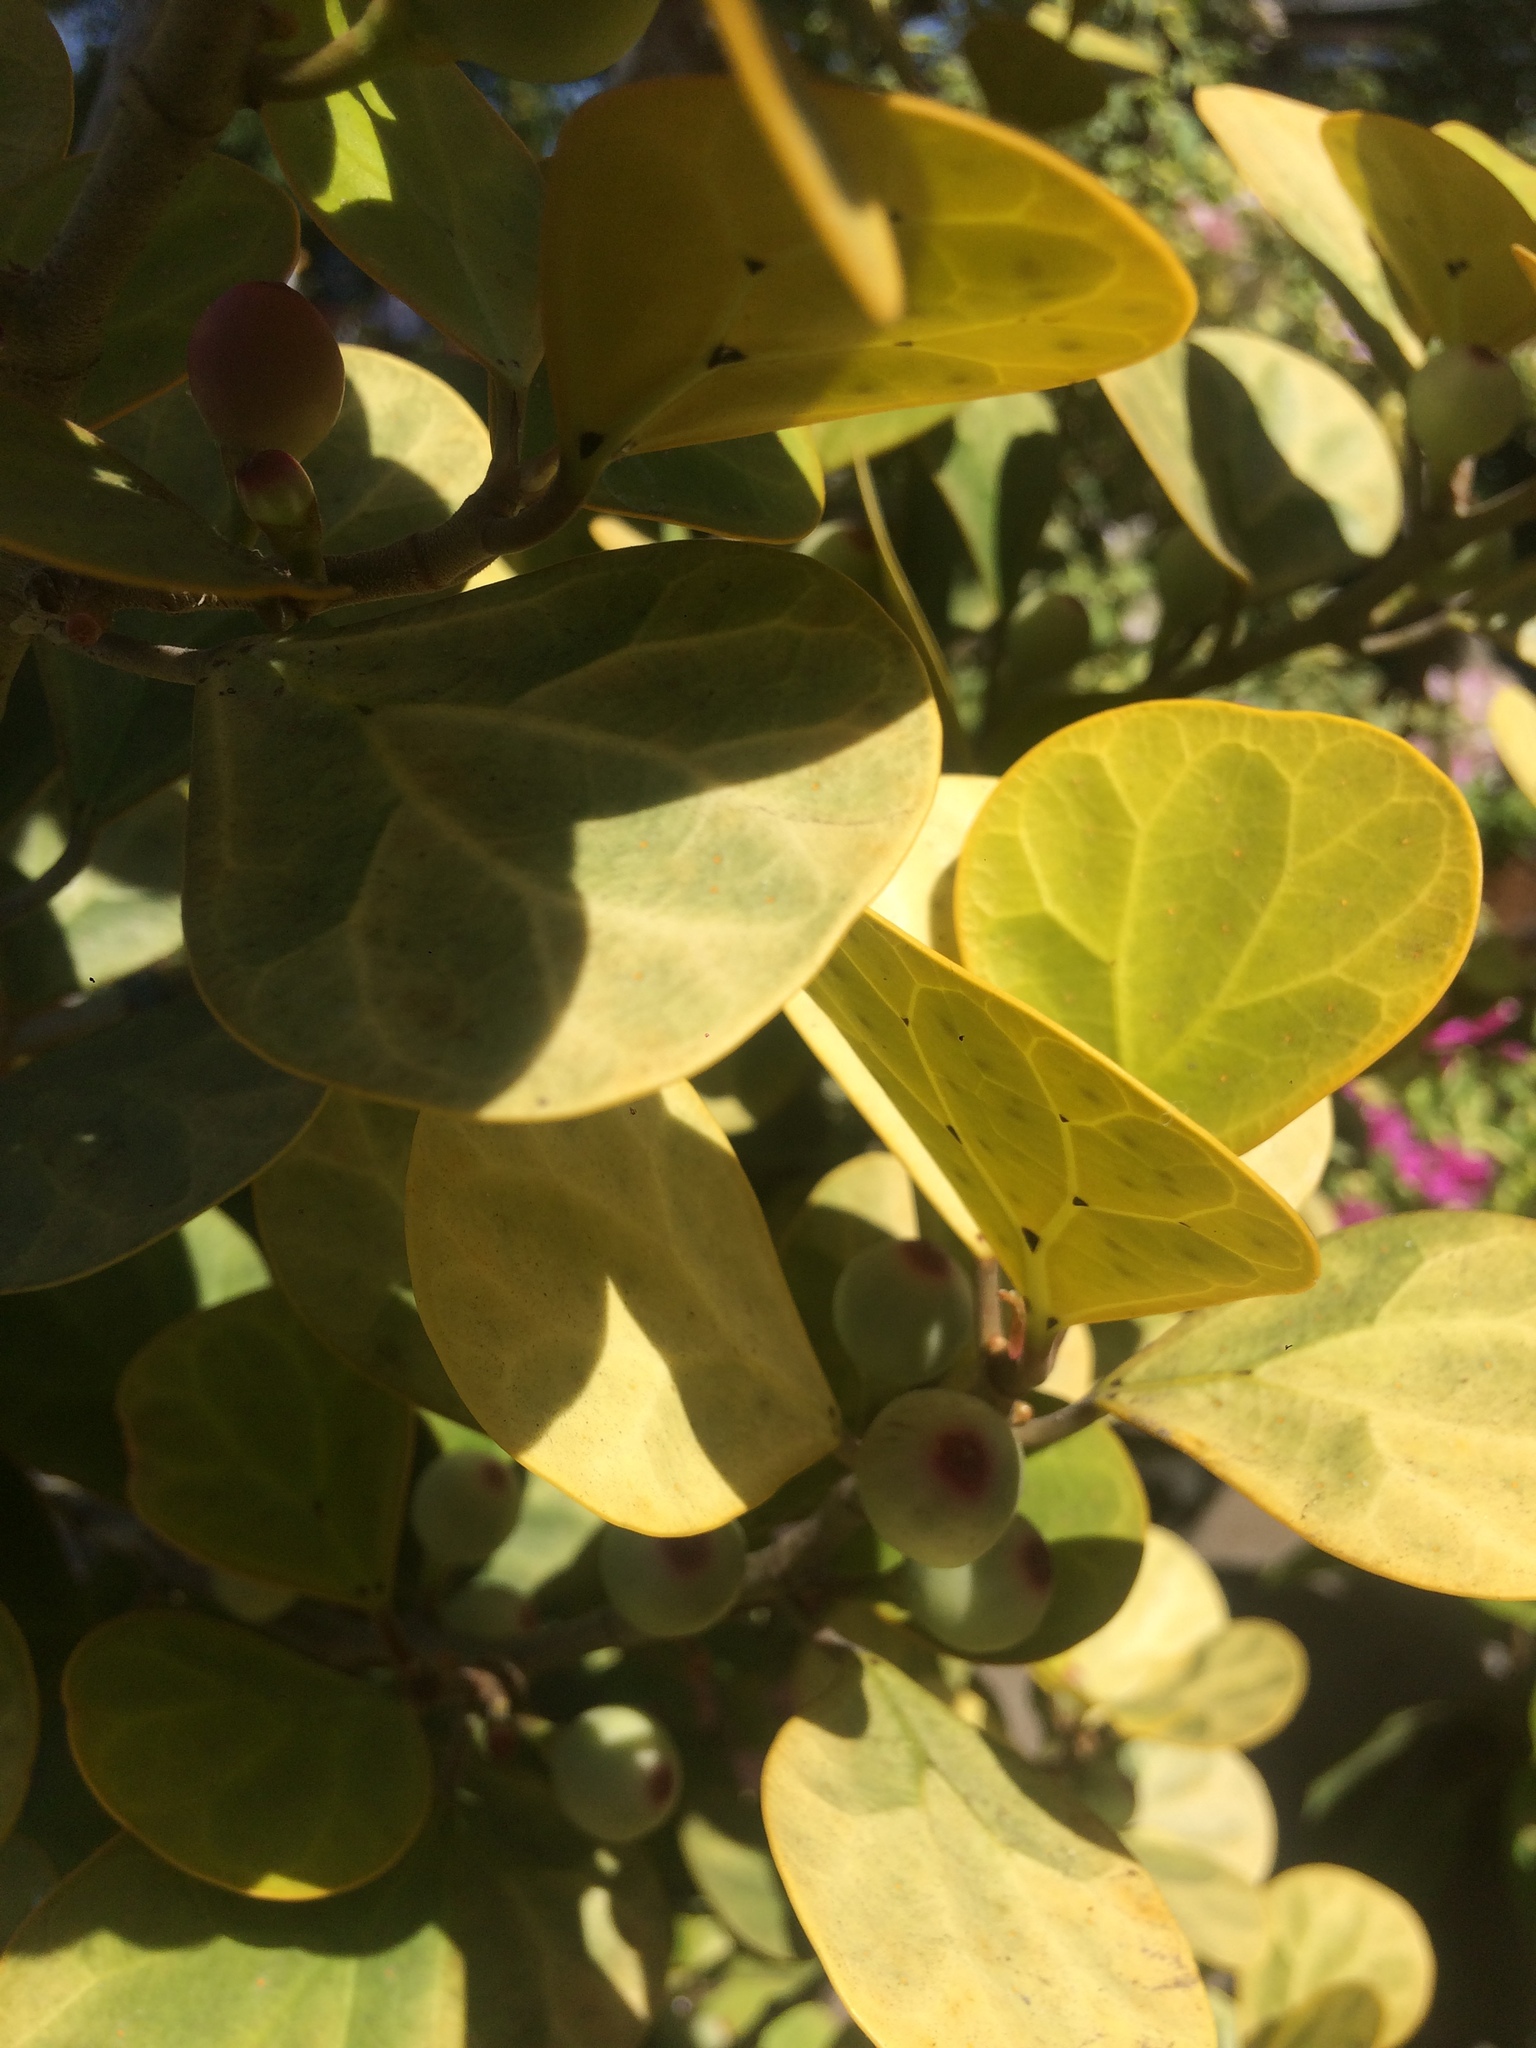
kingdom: Plantae
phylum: Tracheophyta
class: Magnoliopsida
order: Rosales
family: Moraceae
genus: Ficus
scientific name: Ficus deltoidea
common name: Mistletoe fig
